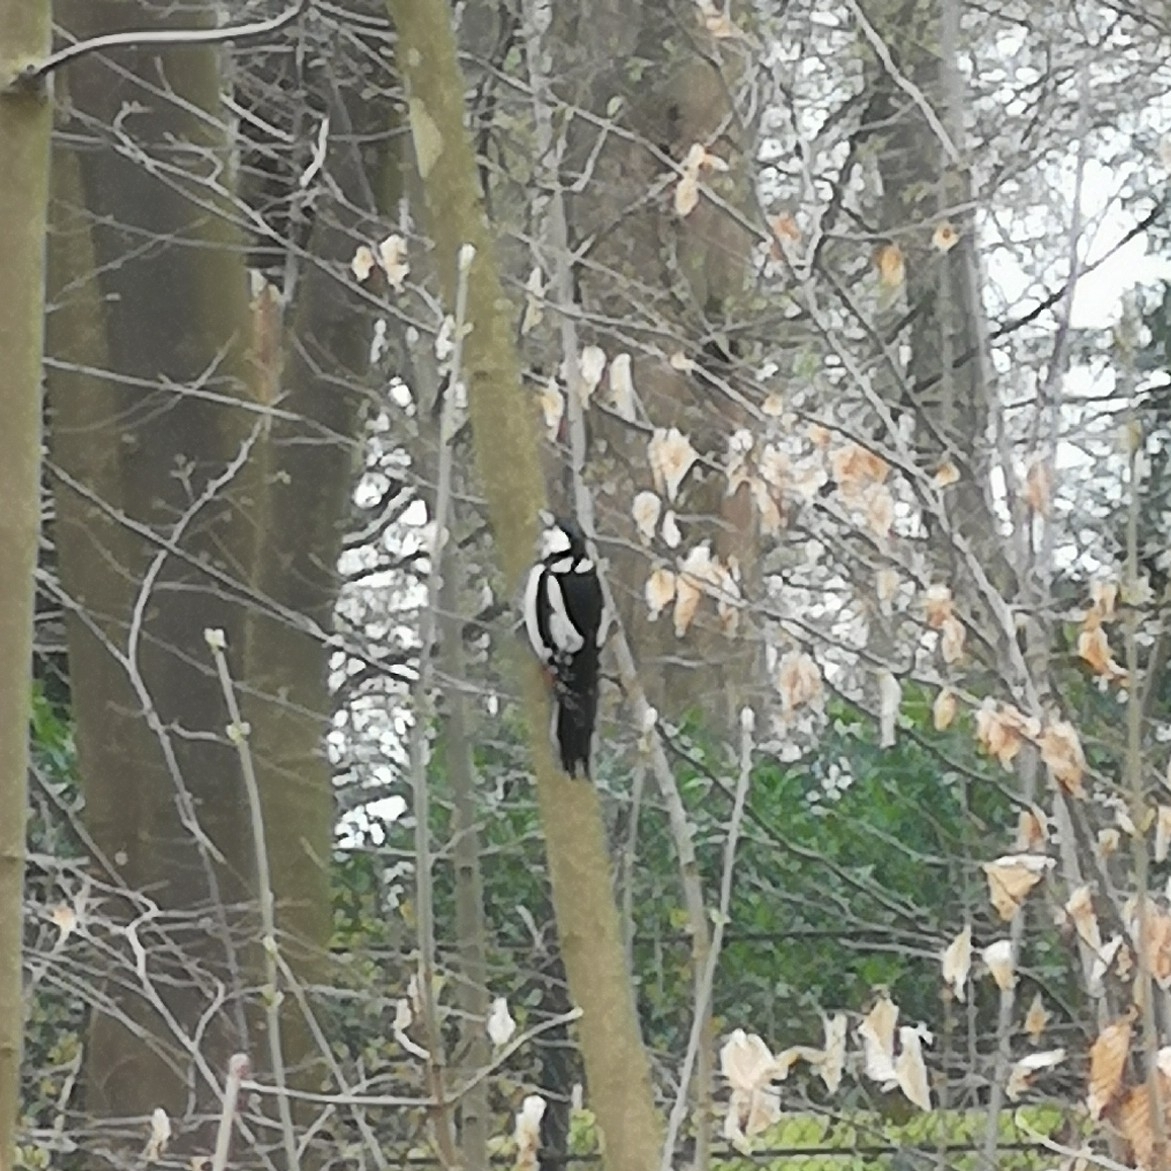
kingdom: Animalia
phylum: Chordata
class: Aves
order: Piciformes
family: Picidae
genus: Dendrocopos
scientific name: Dendrocopos major
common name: Great spotted woodpecker
